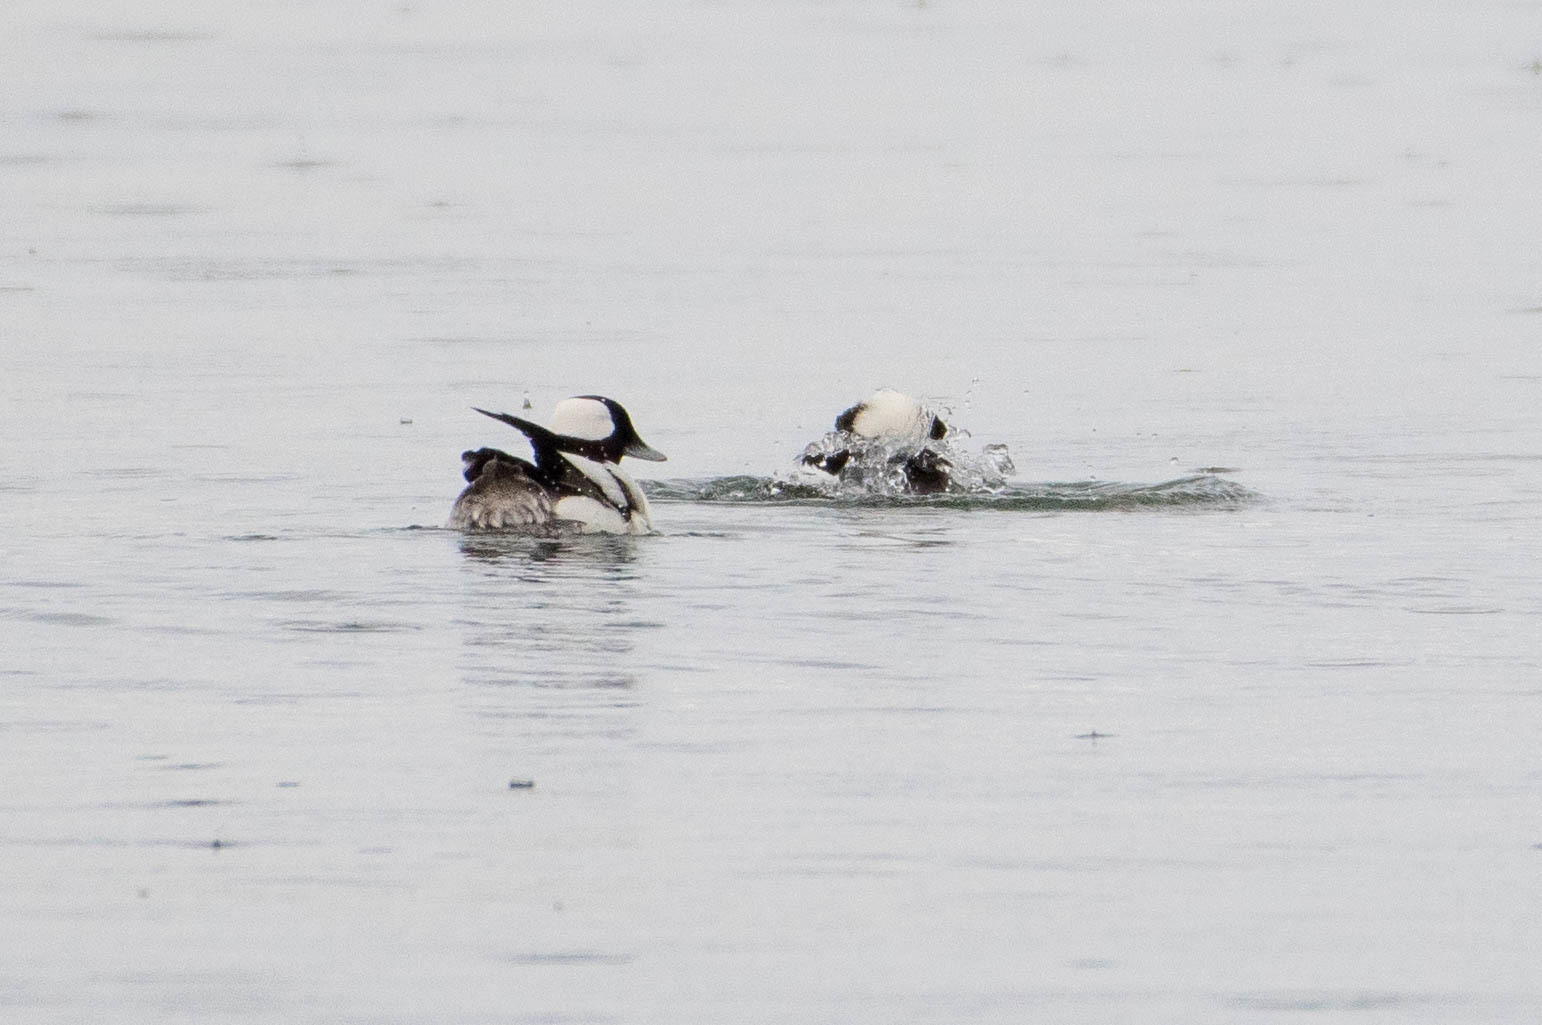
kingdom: Animalia
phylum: Chordata
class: Aves
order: Anseriformes
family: Anatidae
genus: Bucephala
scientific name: Bucephala albeola
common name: Bufflehead
